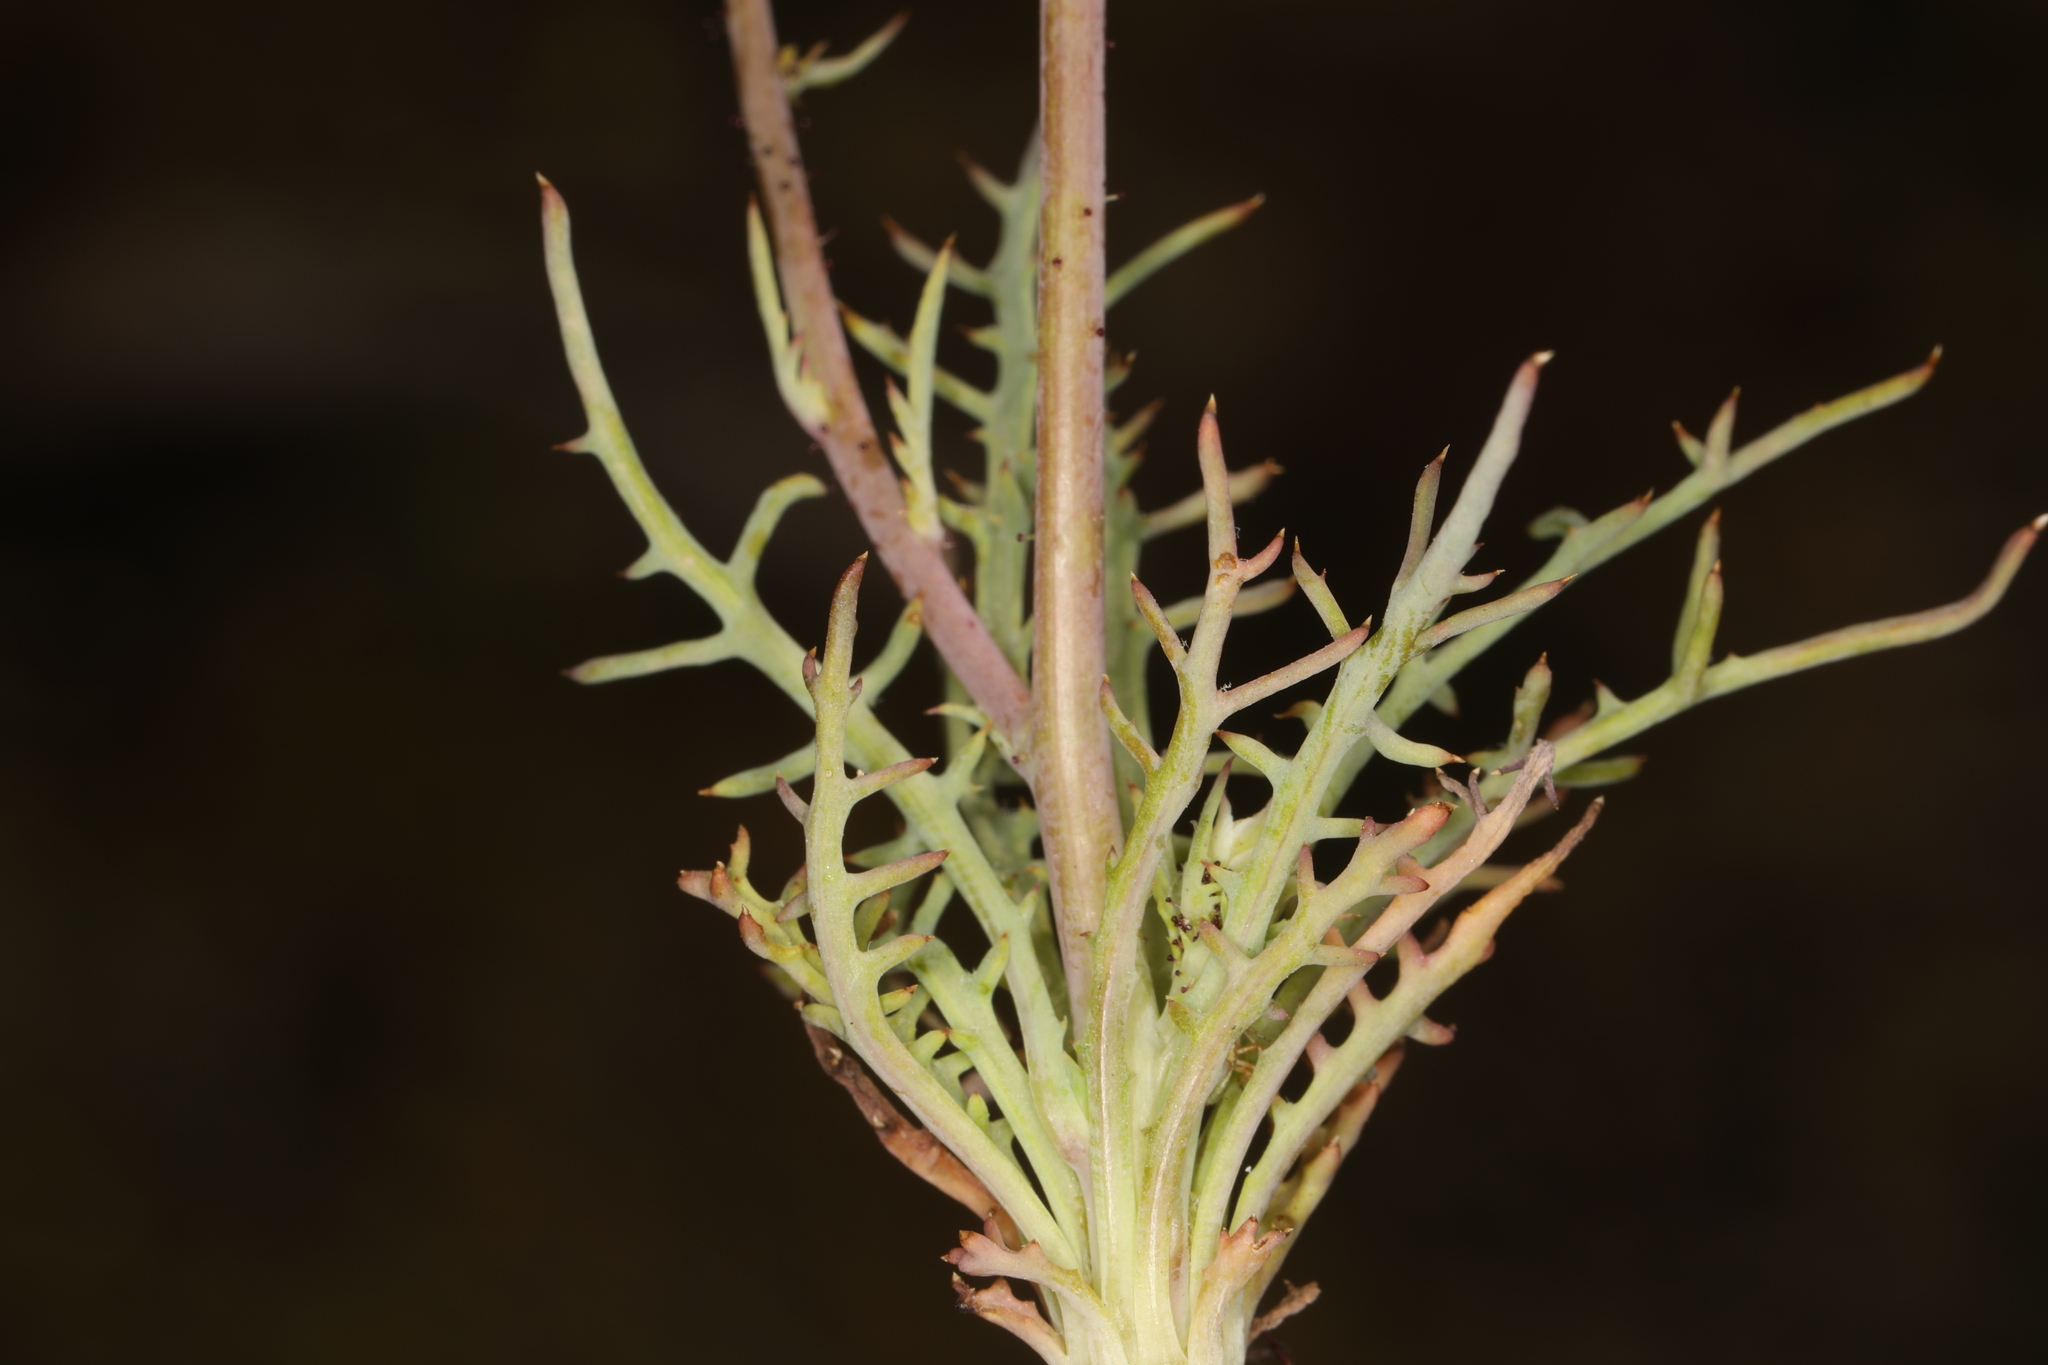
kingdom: Plantae
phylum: Tracheophyta
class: Magnoliopsida
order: Asterales
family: Asteraceae
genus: Calycoseris
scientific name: Calycoseris parryi
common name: Yellow tackstem
